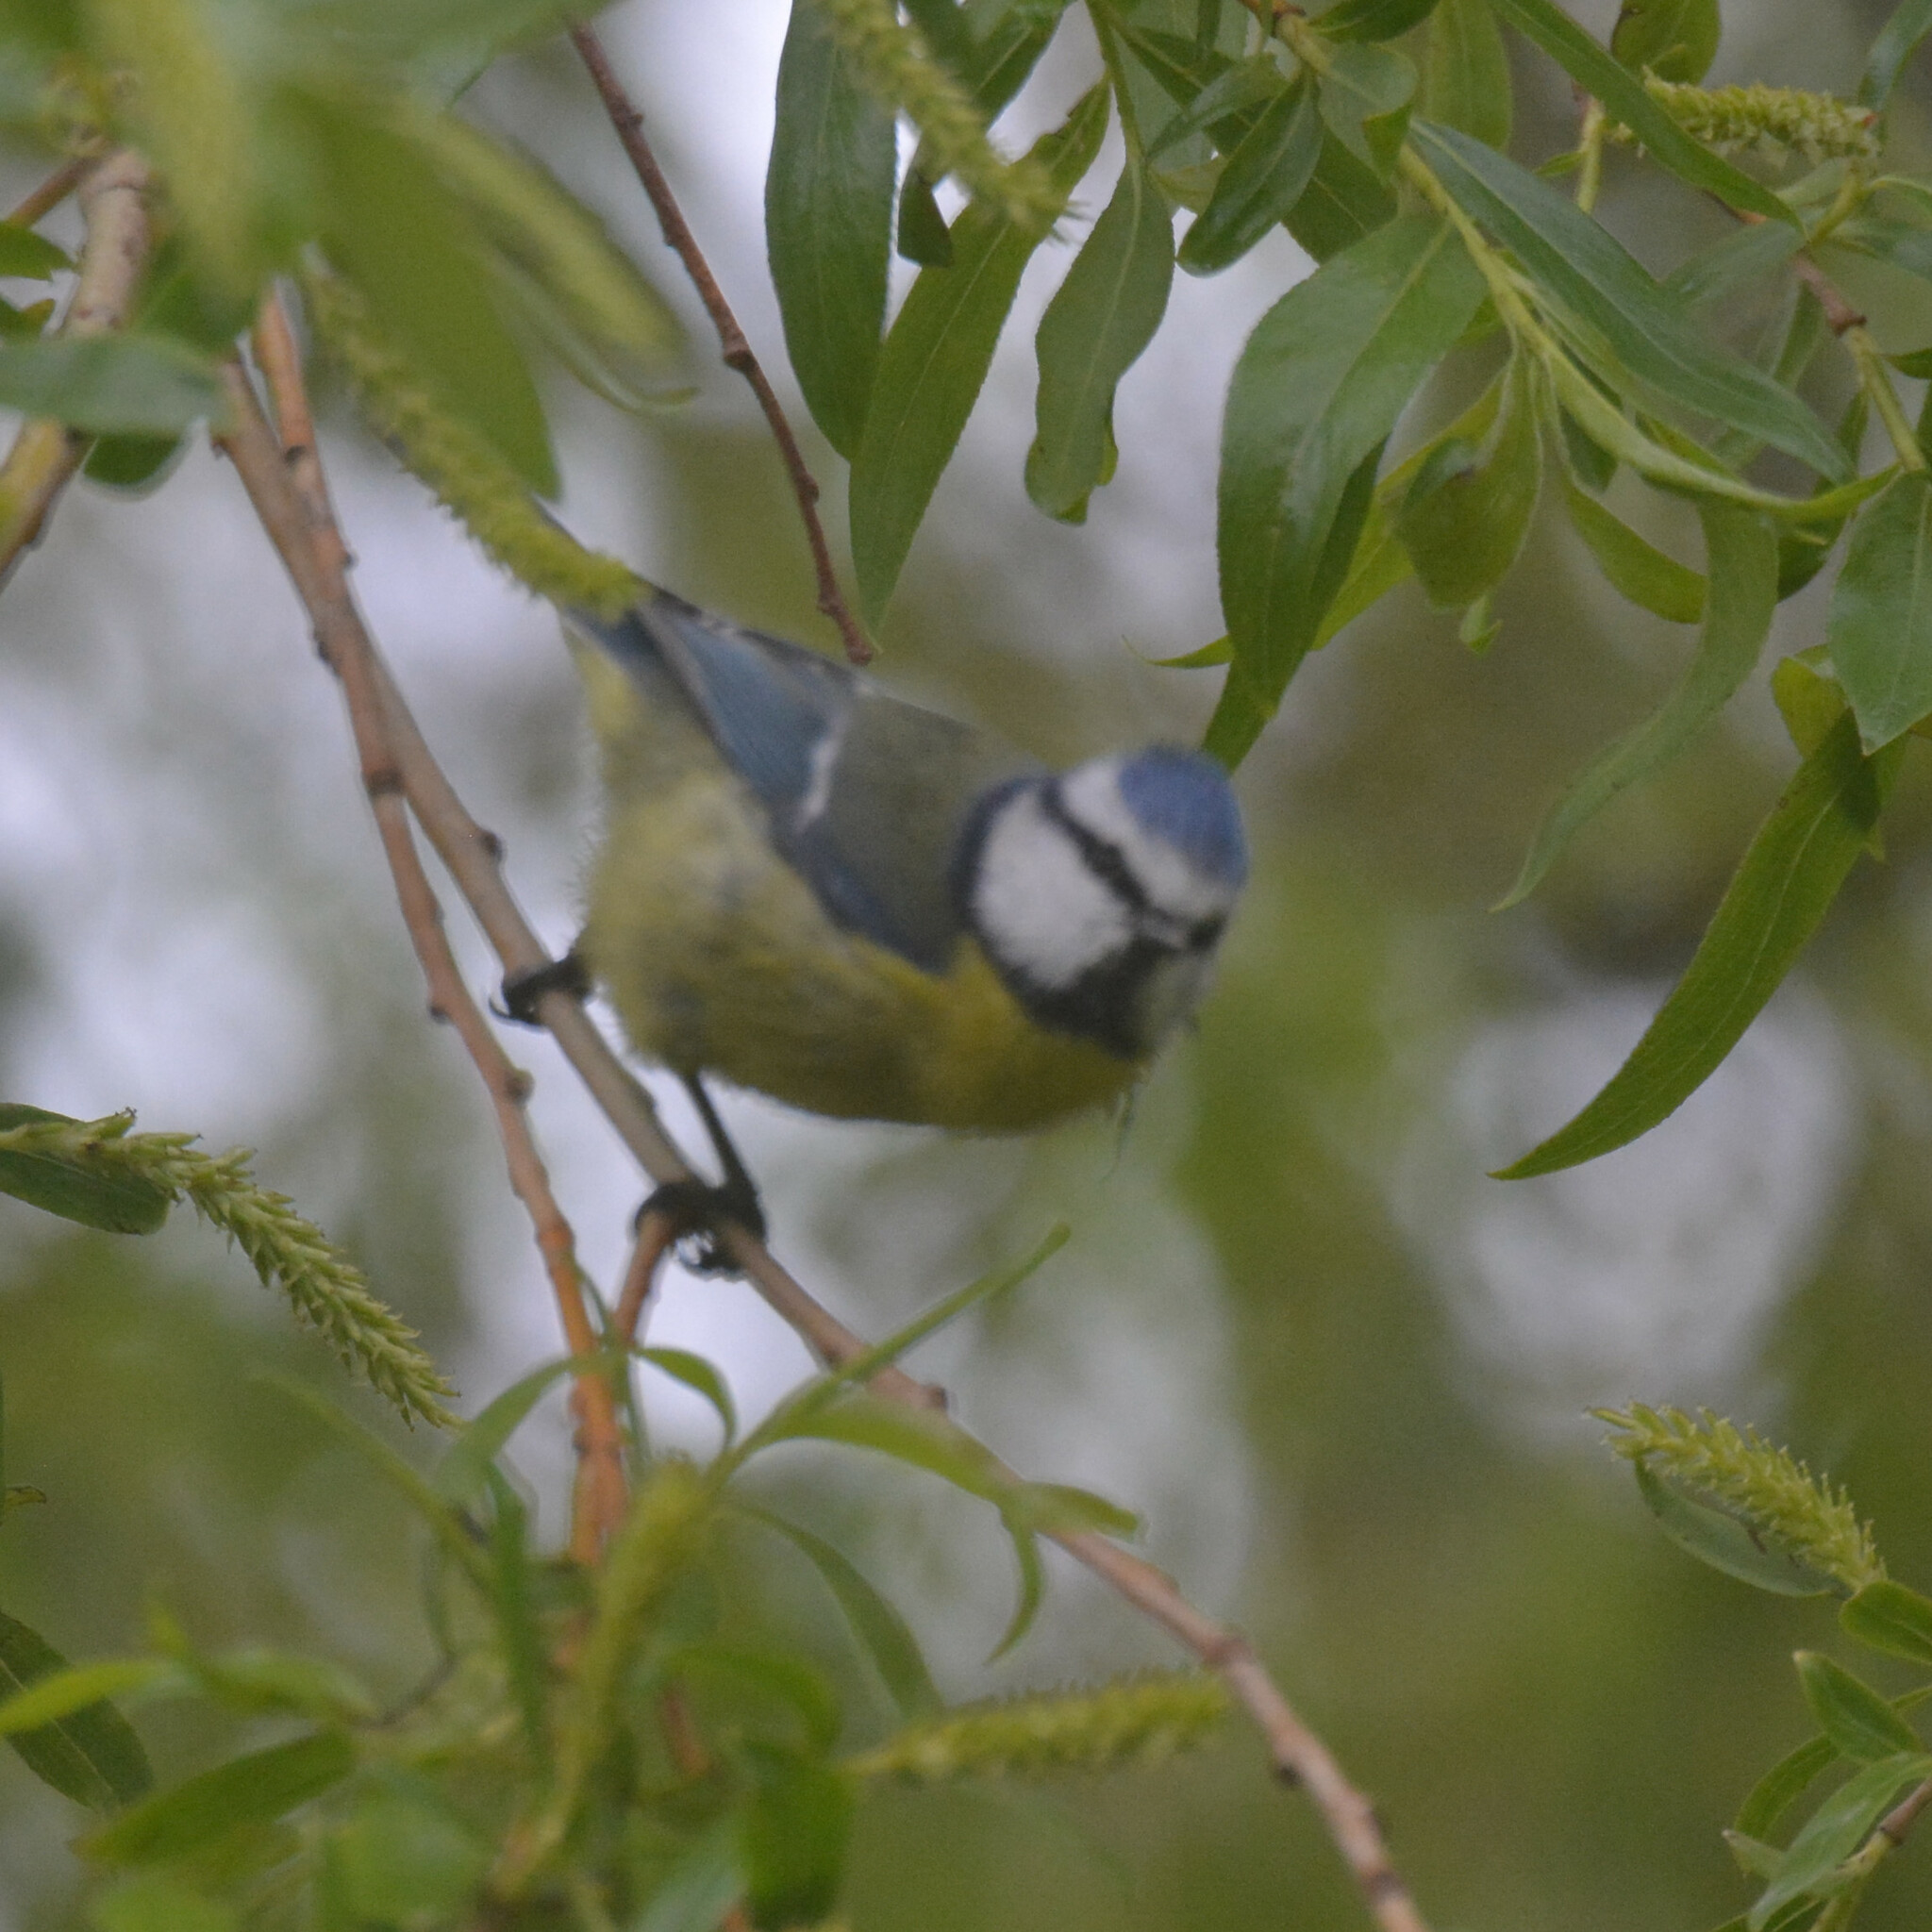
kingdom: Animalia
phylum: Chordata
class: Aves
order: Passeriformes
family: Paridae
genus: Cyanistes
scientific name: Cyanistes caeruleus
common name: Eurasian blue tit
